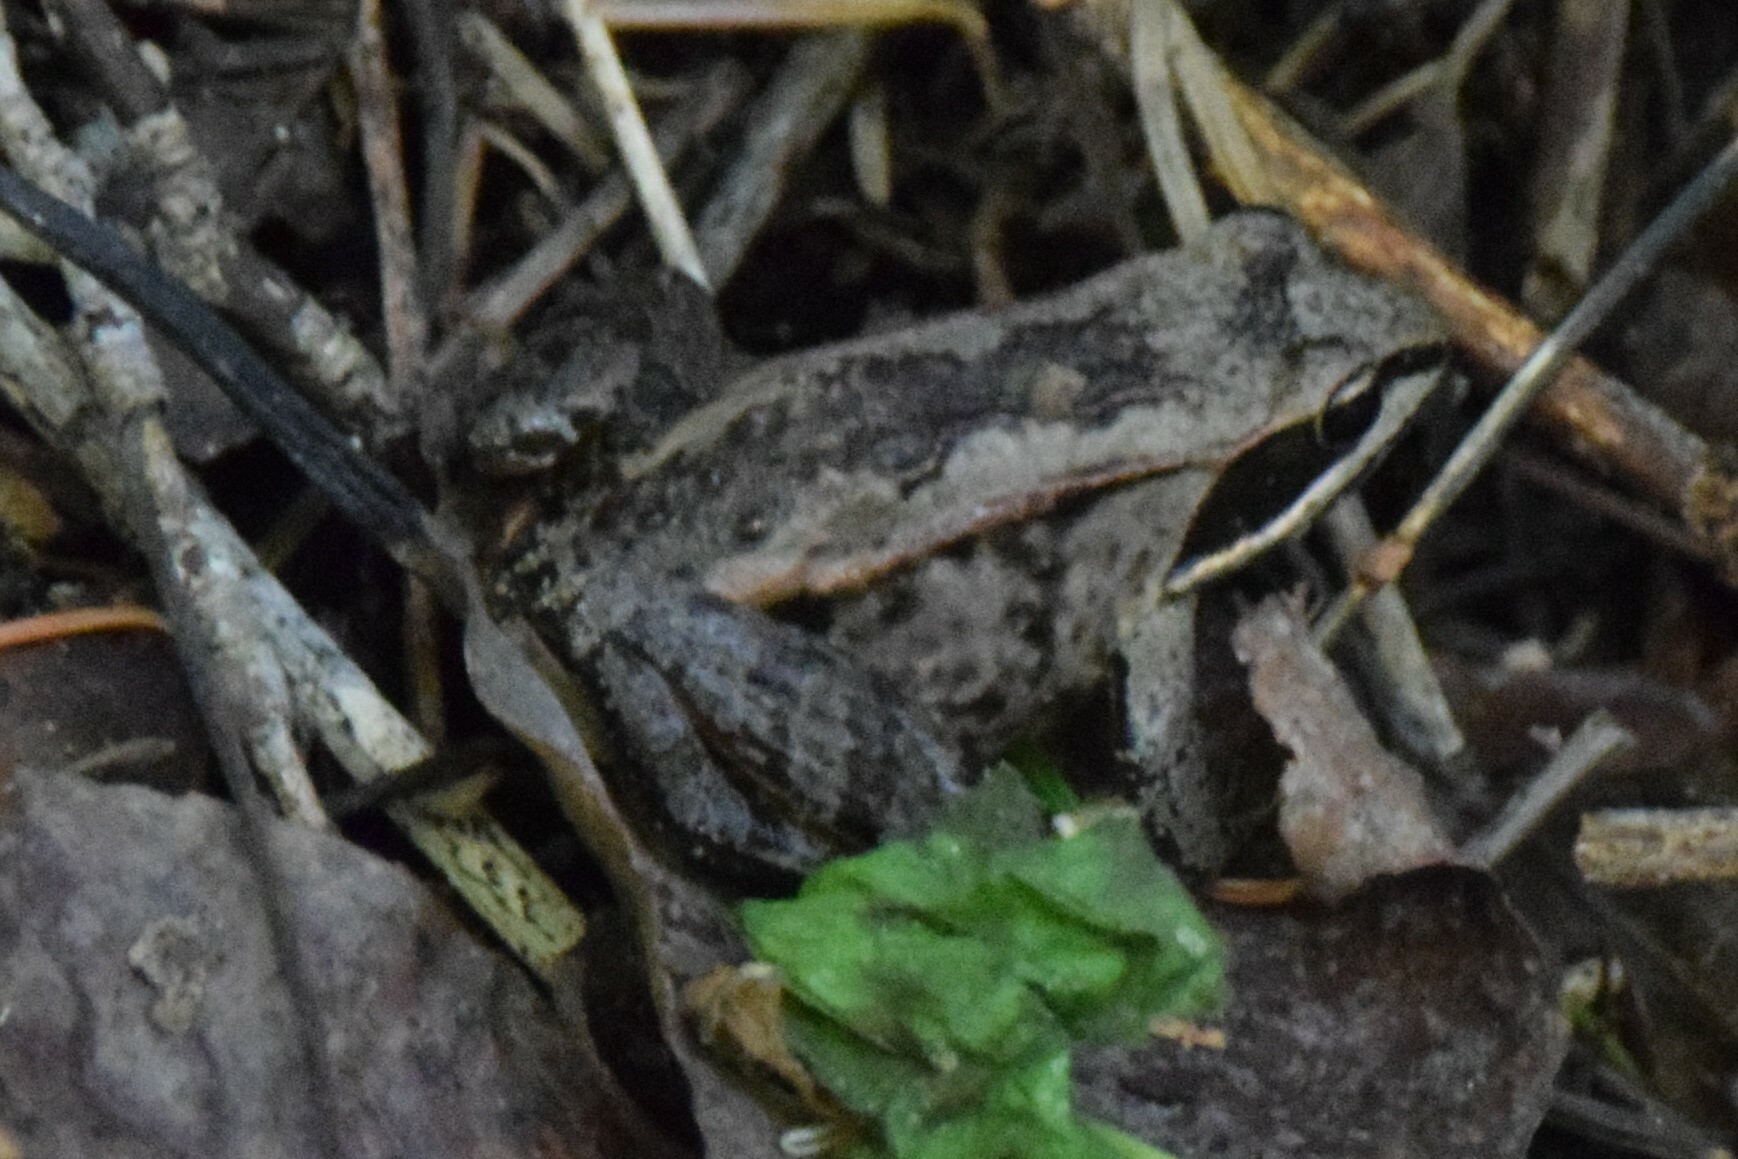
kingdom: Animalia
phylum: Chordata
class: Amphibia
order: Anura
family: Ranidae
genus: Lithobates
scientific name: Lithobates sylvaticus
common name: Wood frog
